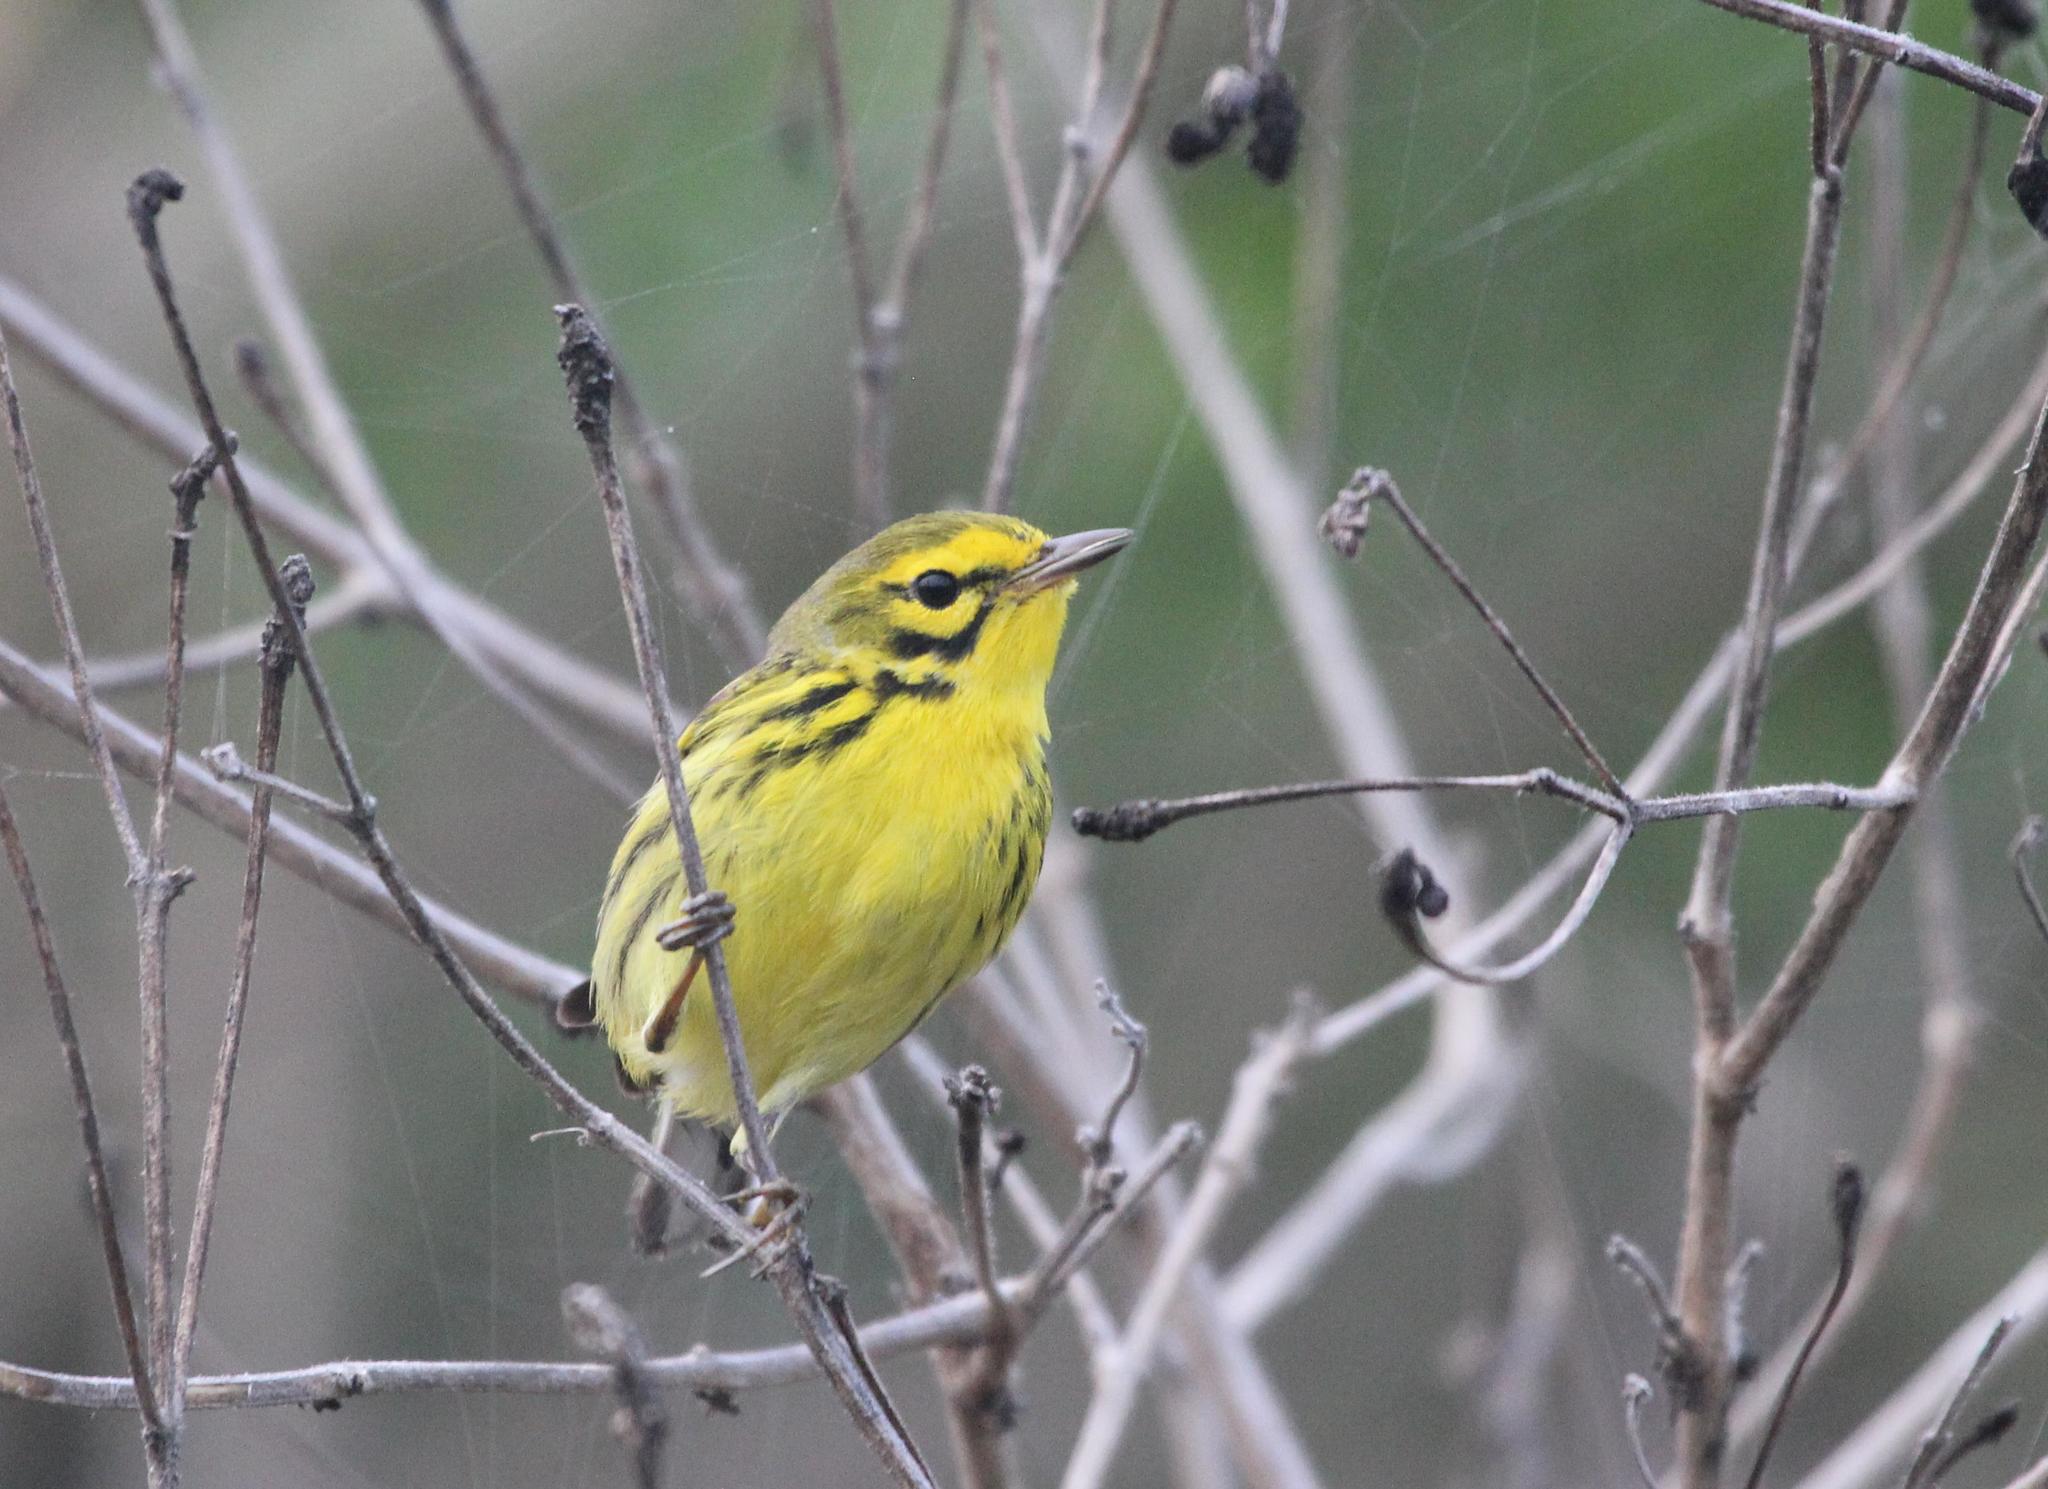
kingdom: Animalia
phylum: Chordata
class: Aves
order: Passeriformes
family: Parulidae
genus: Setophaga
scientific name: Setophaga discolor
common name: Prairie warbler
